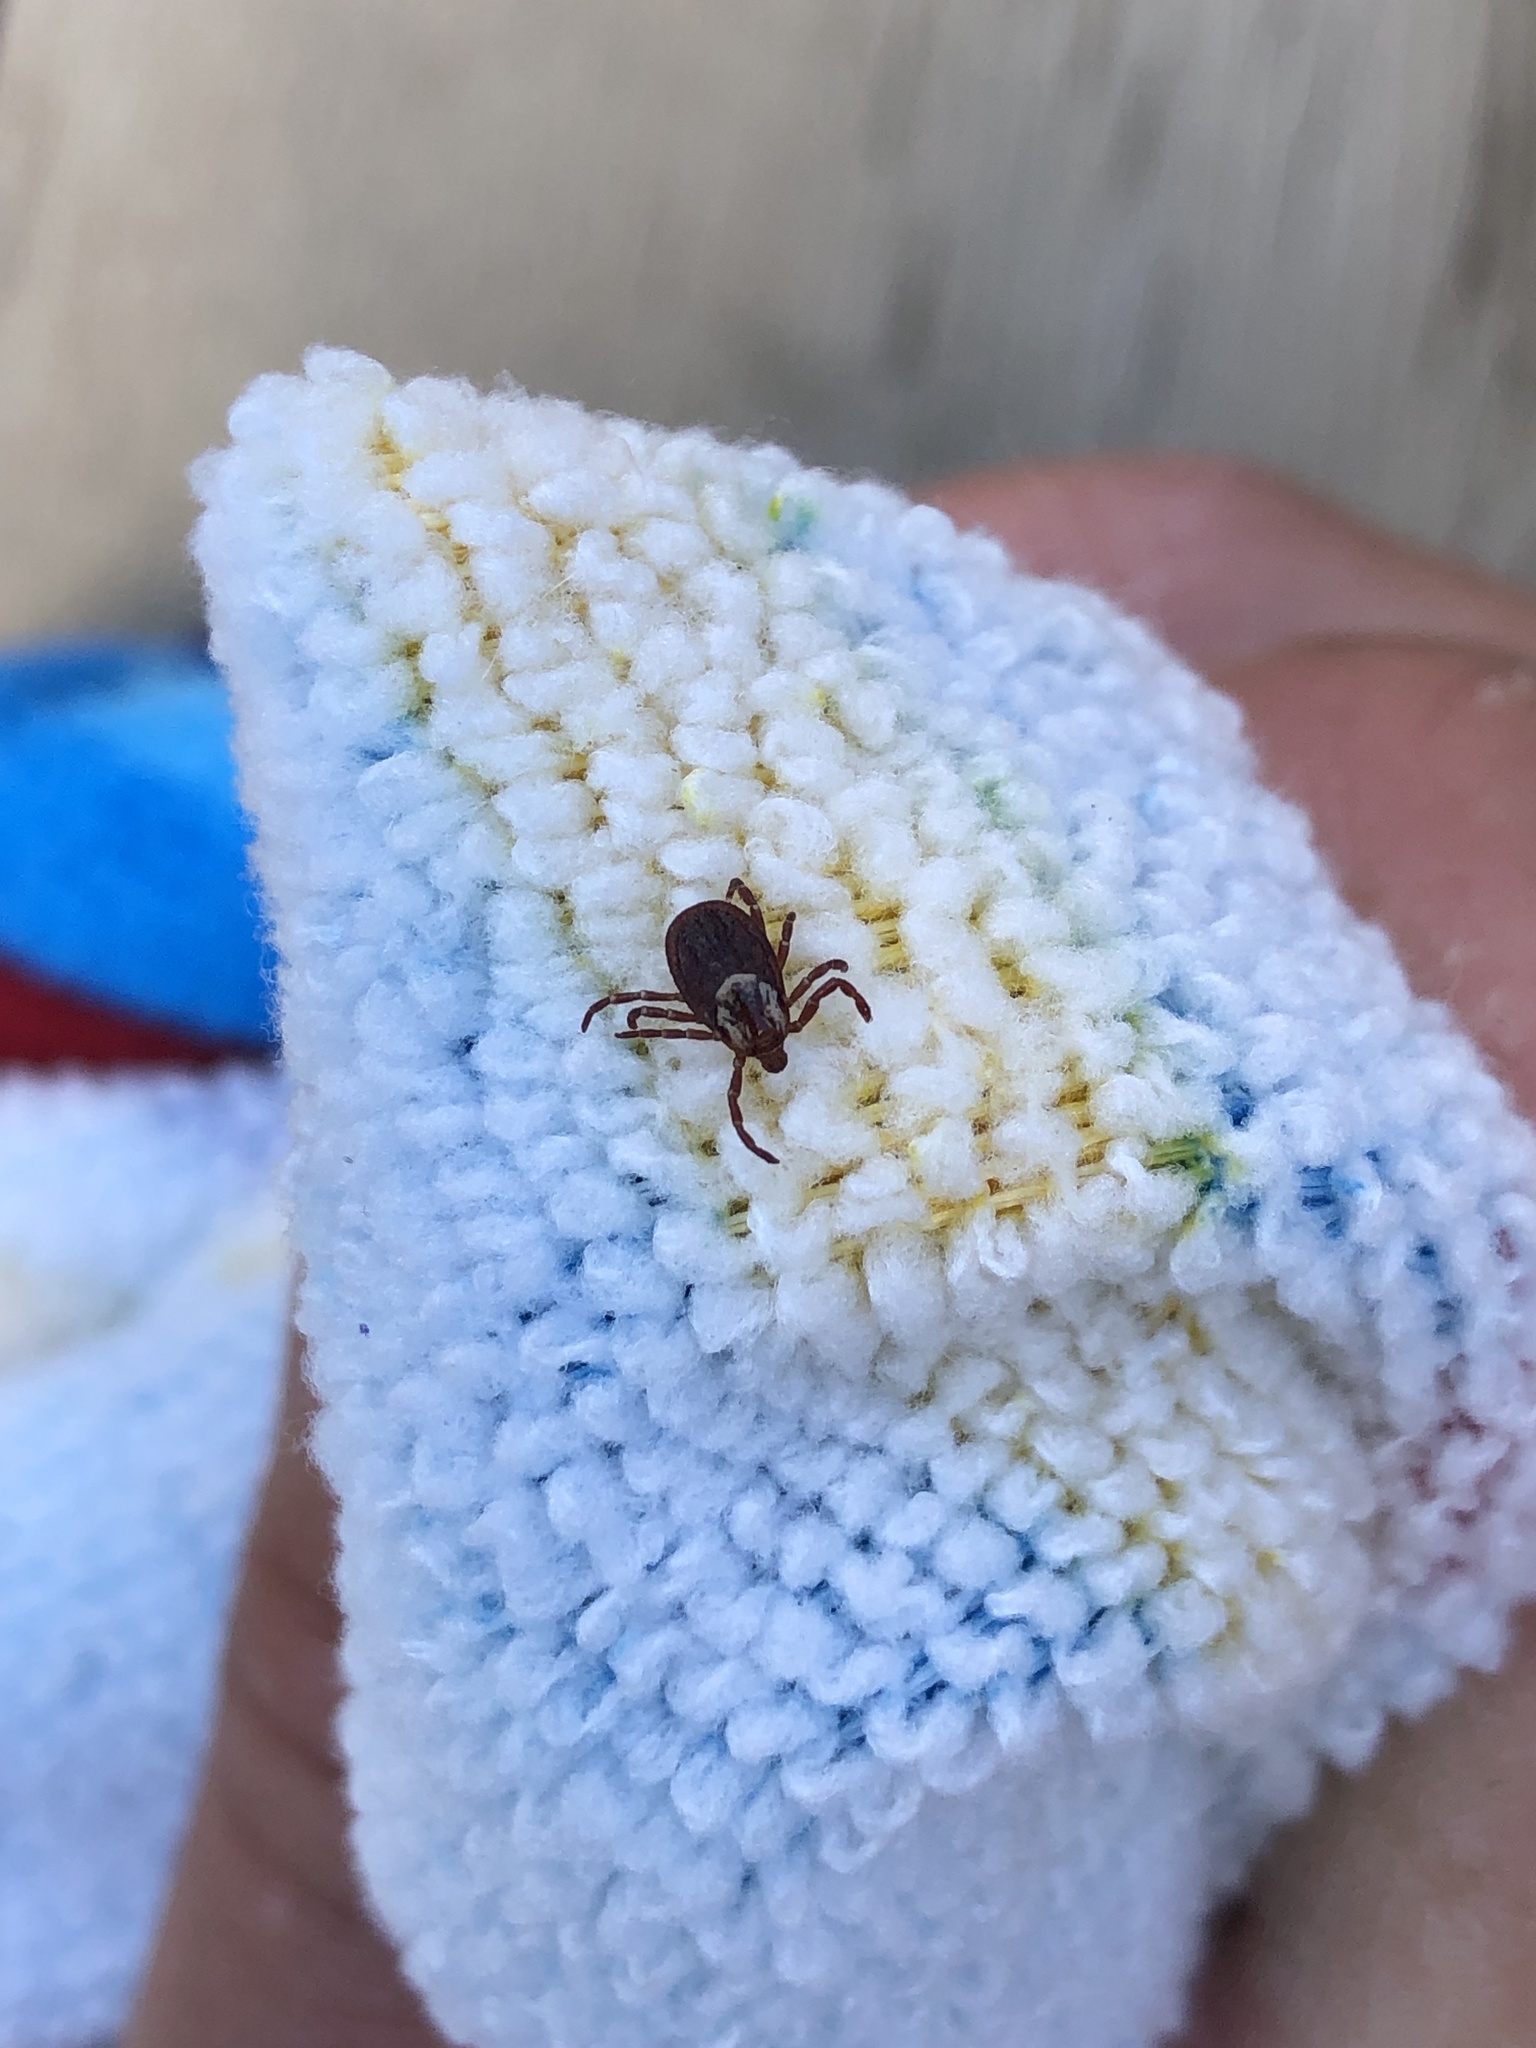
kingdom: Animalia
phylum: Arthropoda
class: Arachnida
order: Ixodida
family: Ixodidae
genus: Dermacentor
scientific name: Dermacentor variabilis
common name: American dog tick
